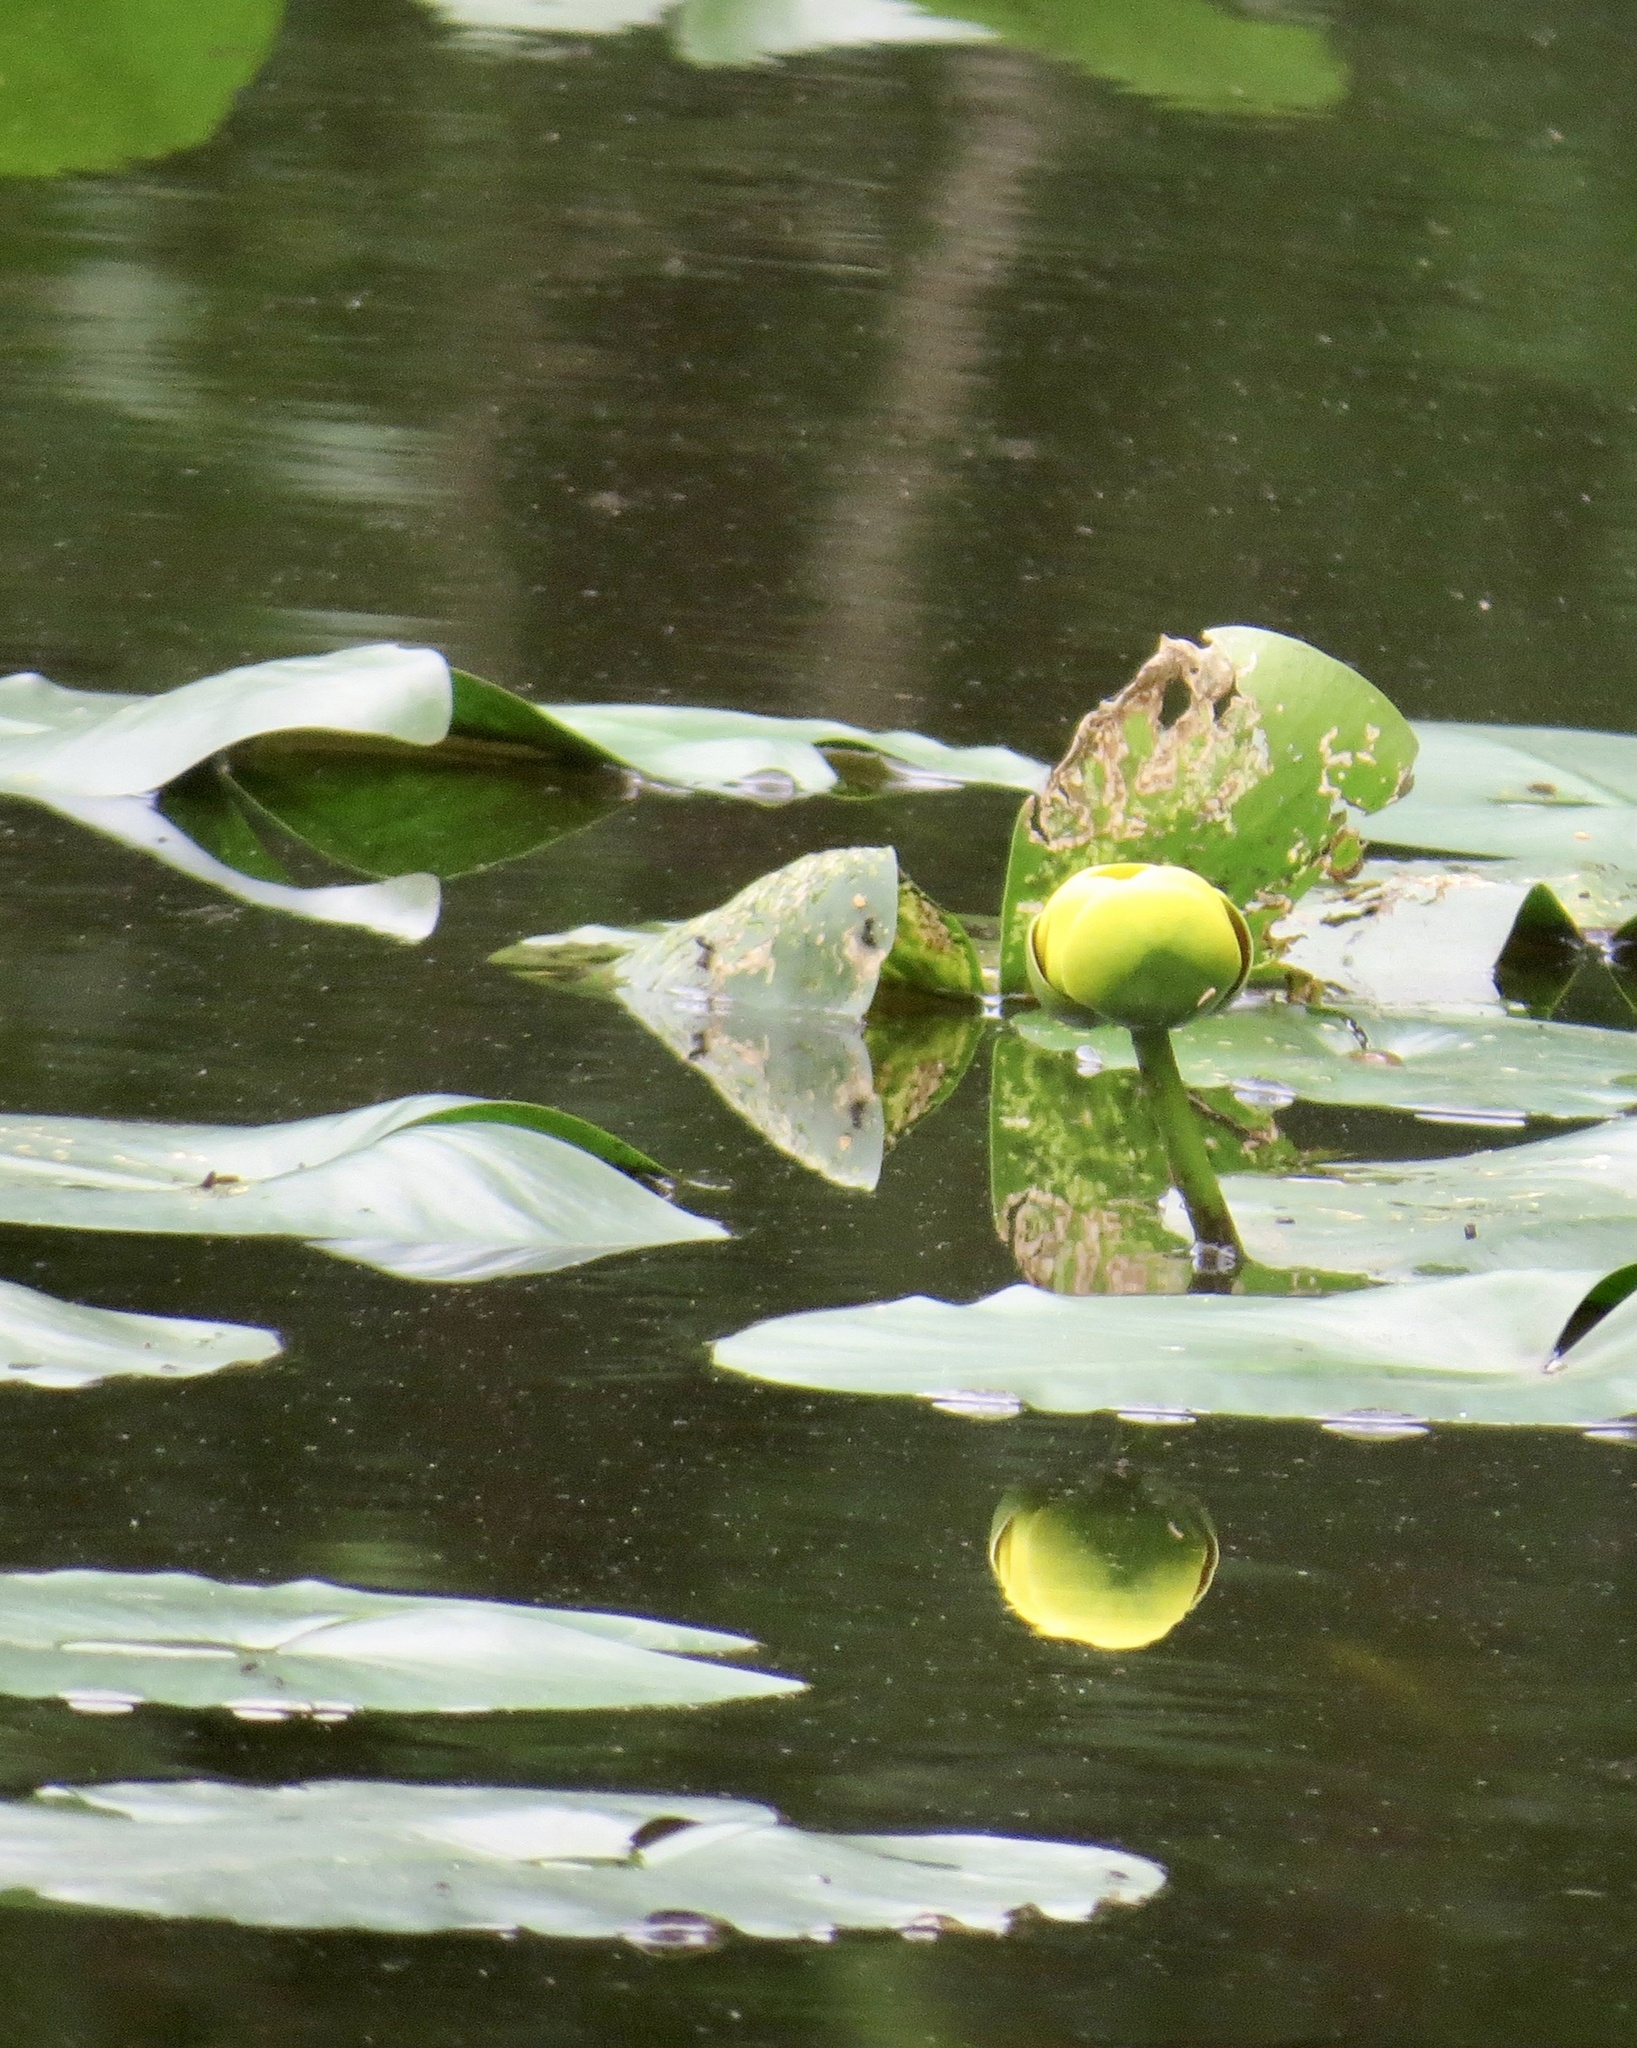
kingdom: Plantae
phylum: Tracheophyta
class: Magnoliopsida
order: Nymphaeales
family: Nymphaeaceae
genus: Nuphar
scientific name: Nuphar advena
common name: Spatter-dock
